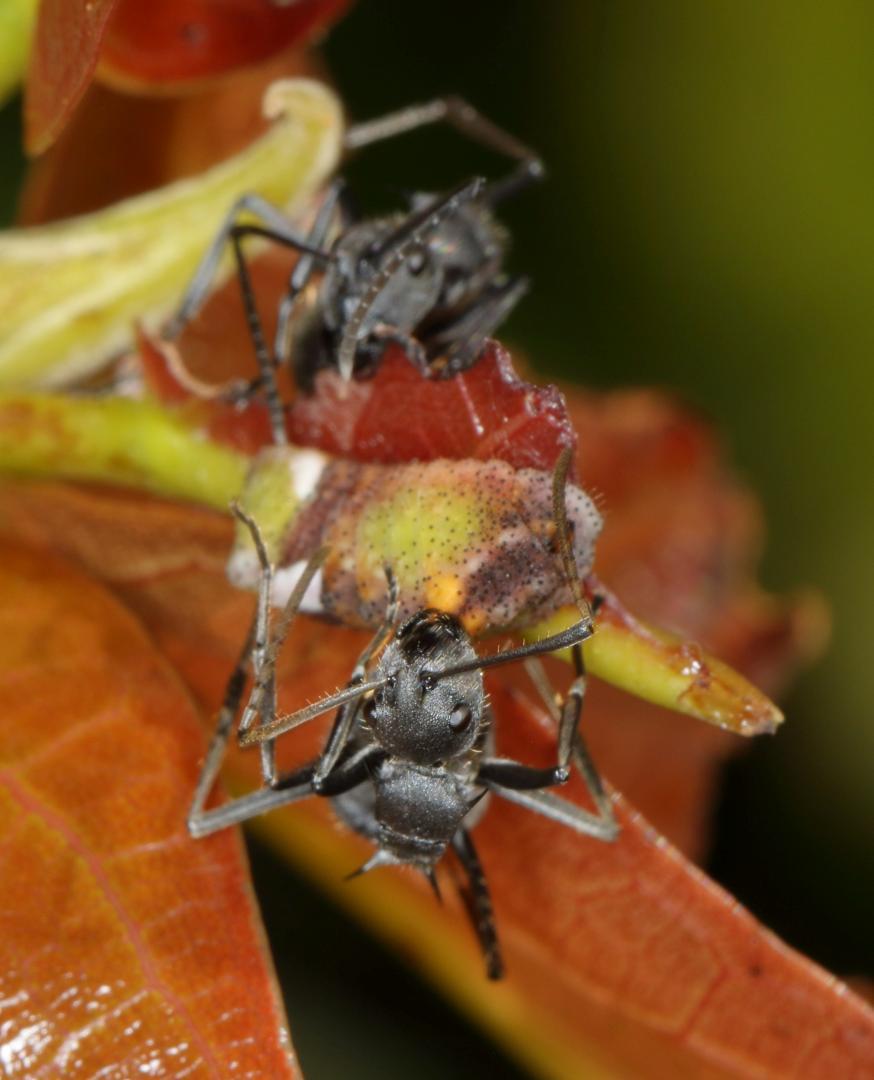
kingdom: Animalia
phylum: Arthropoda
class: Insecta
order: Hymenoptera
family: Formicidae
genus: Polyrhachis
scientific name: Polyrhachis schistacea
